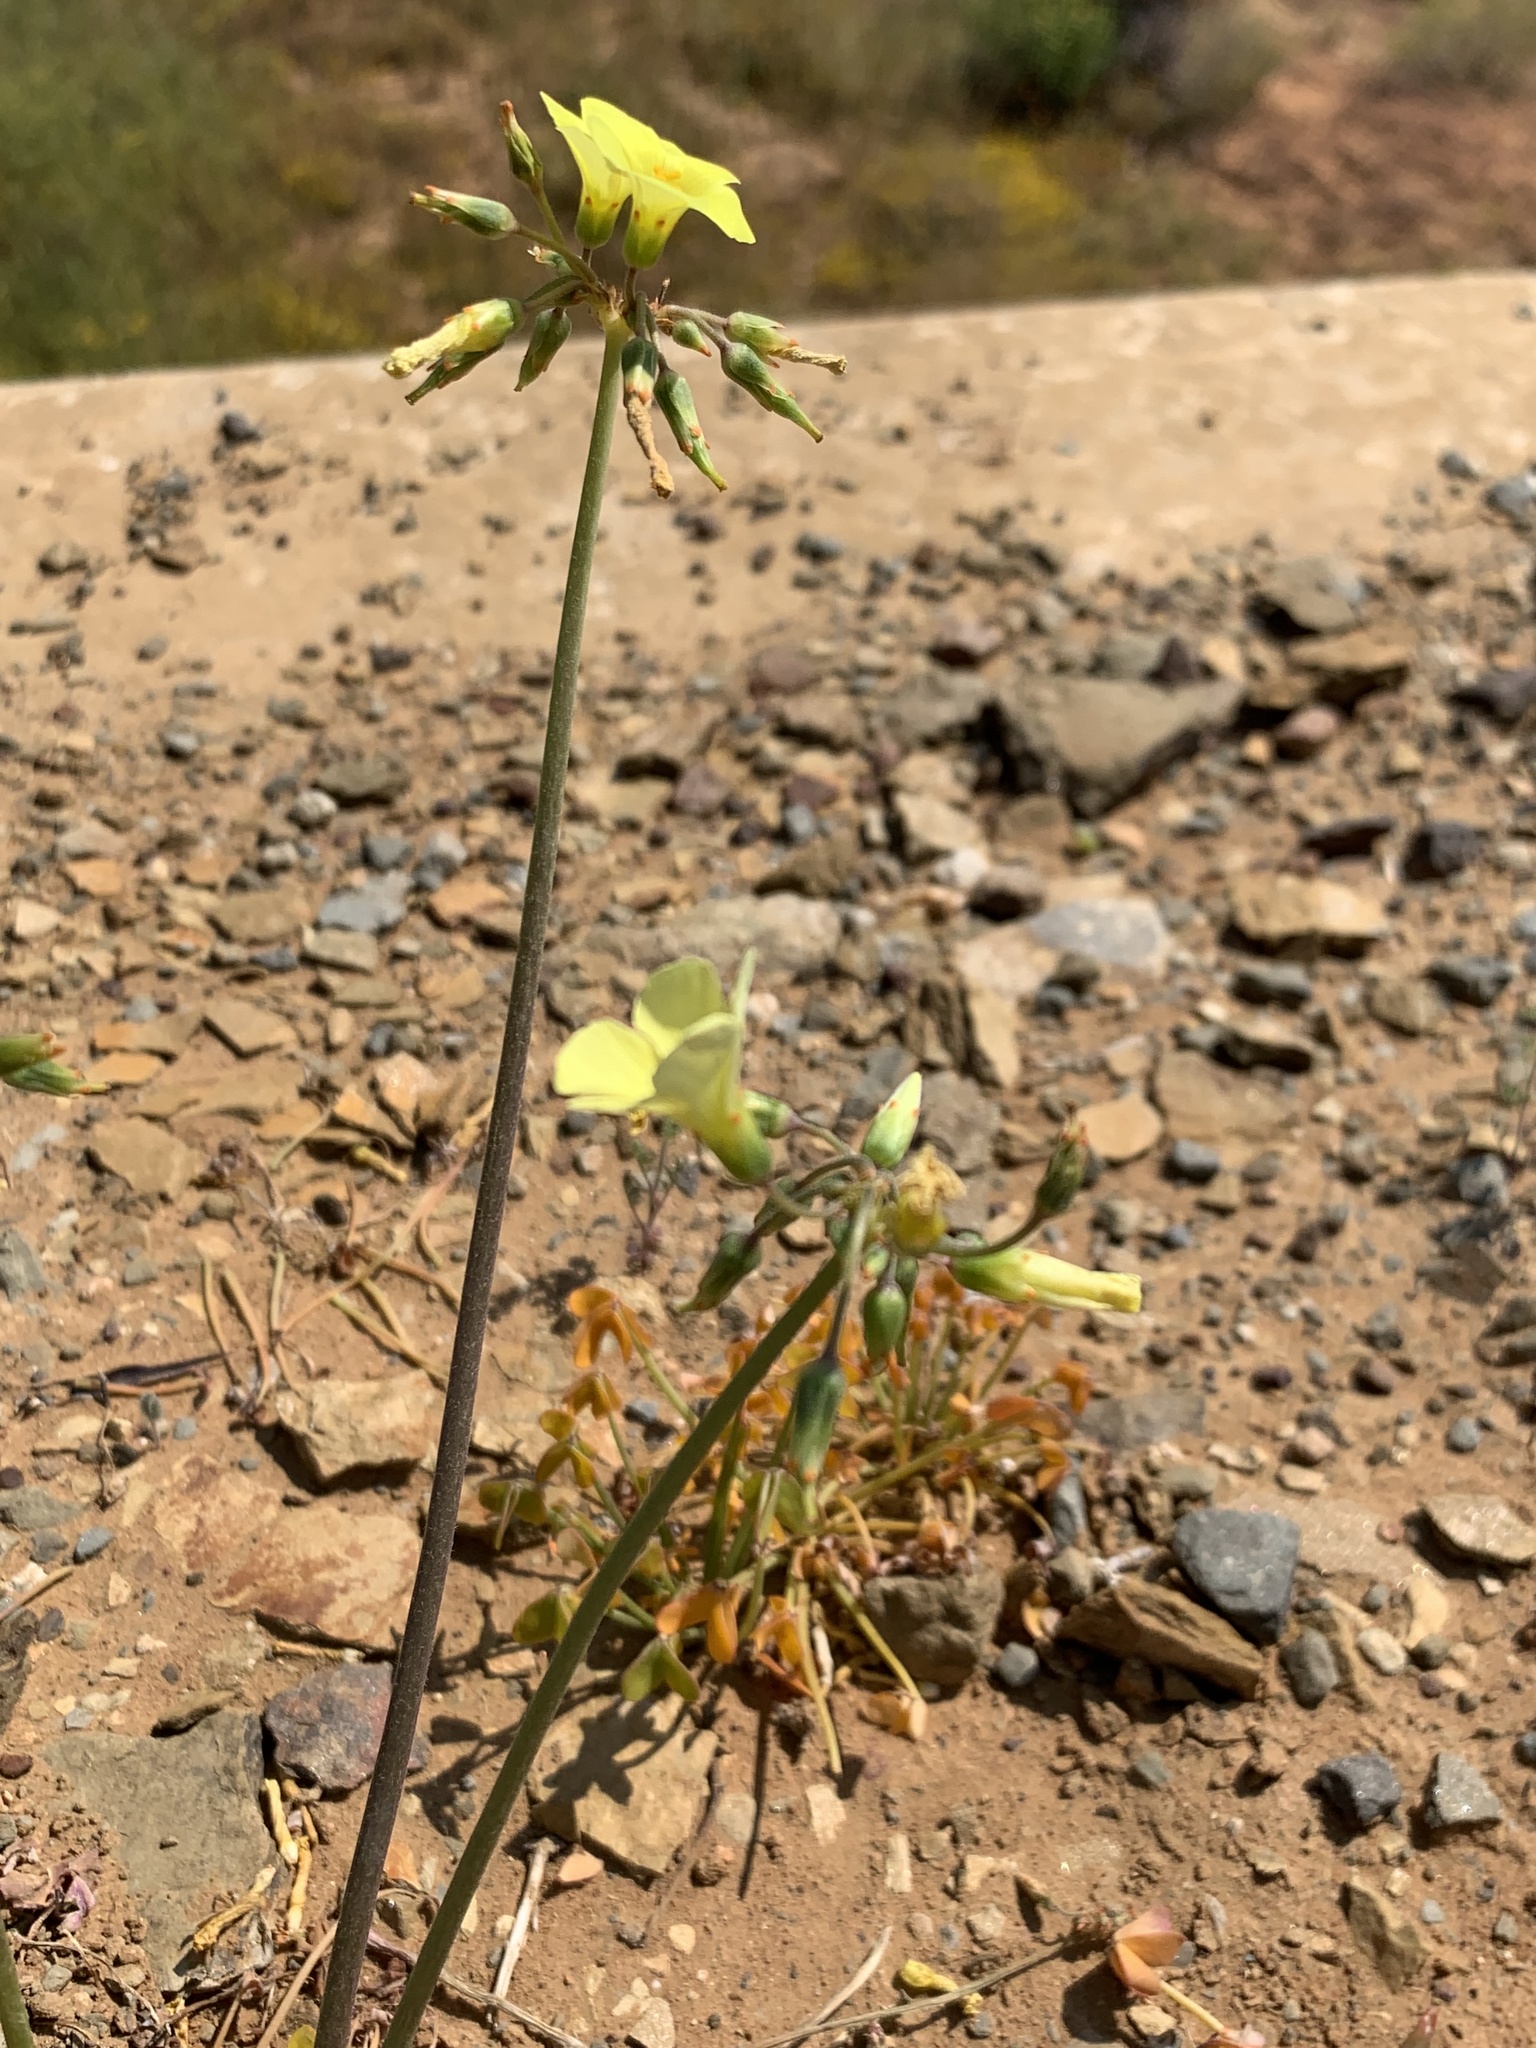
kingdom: Plantae
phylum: Tracheophyta
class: Magnoliopsida
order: Oxalidales
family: Oxalidaceae
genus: Oxalis
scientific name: Oxalis pes-caprae
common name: Bermuda-buttercup
